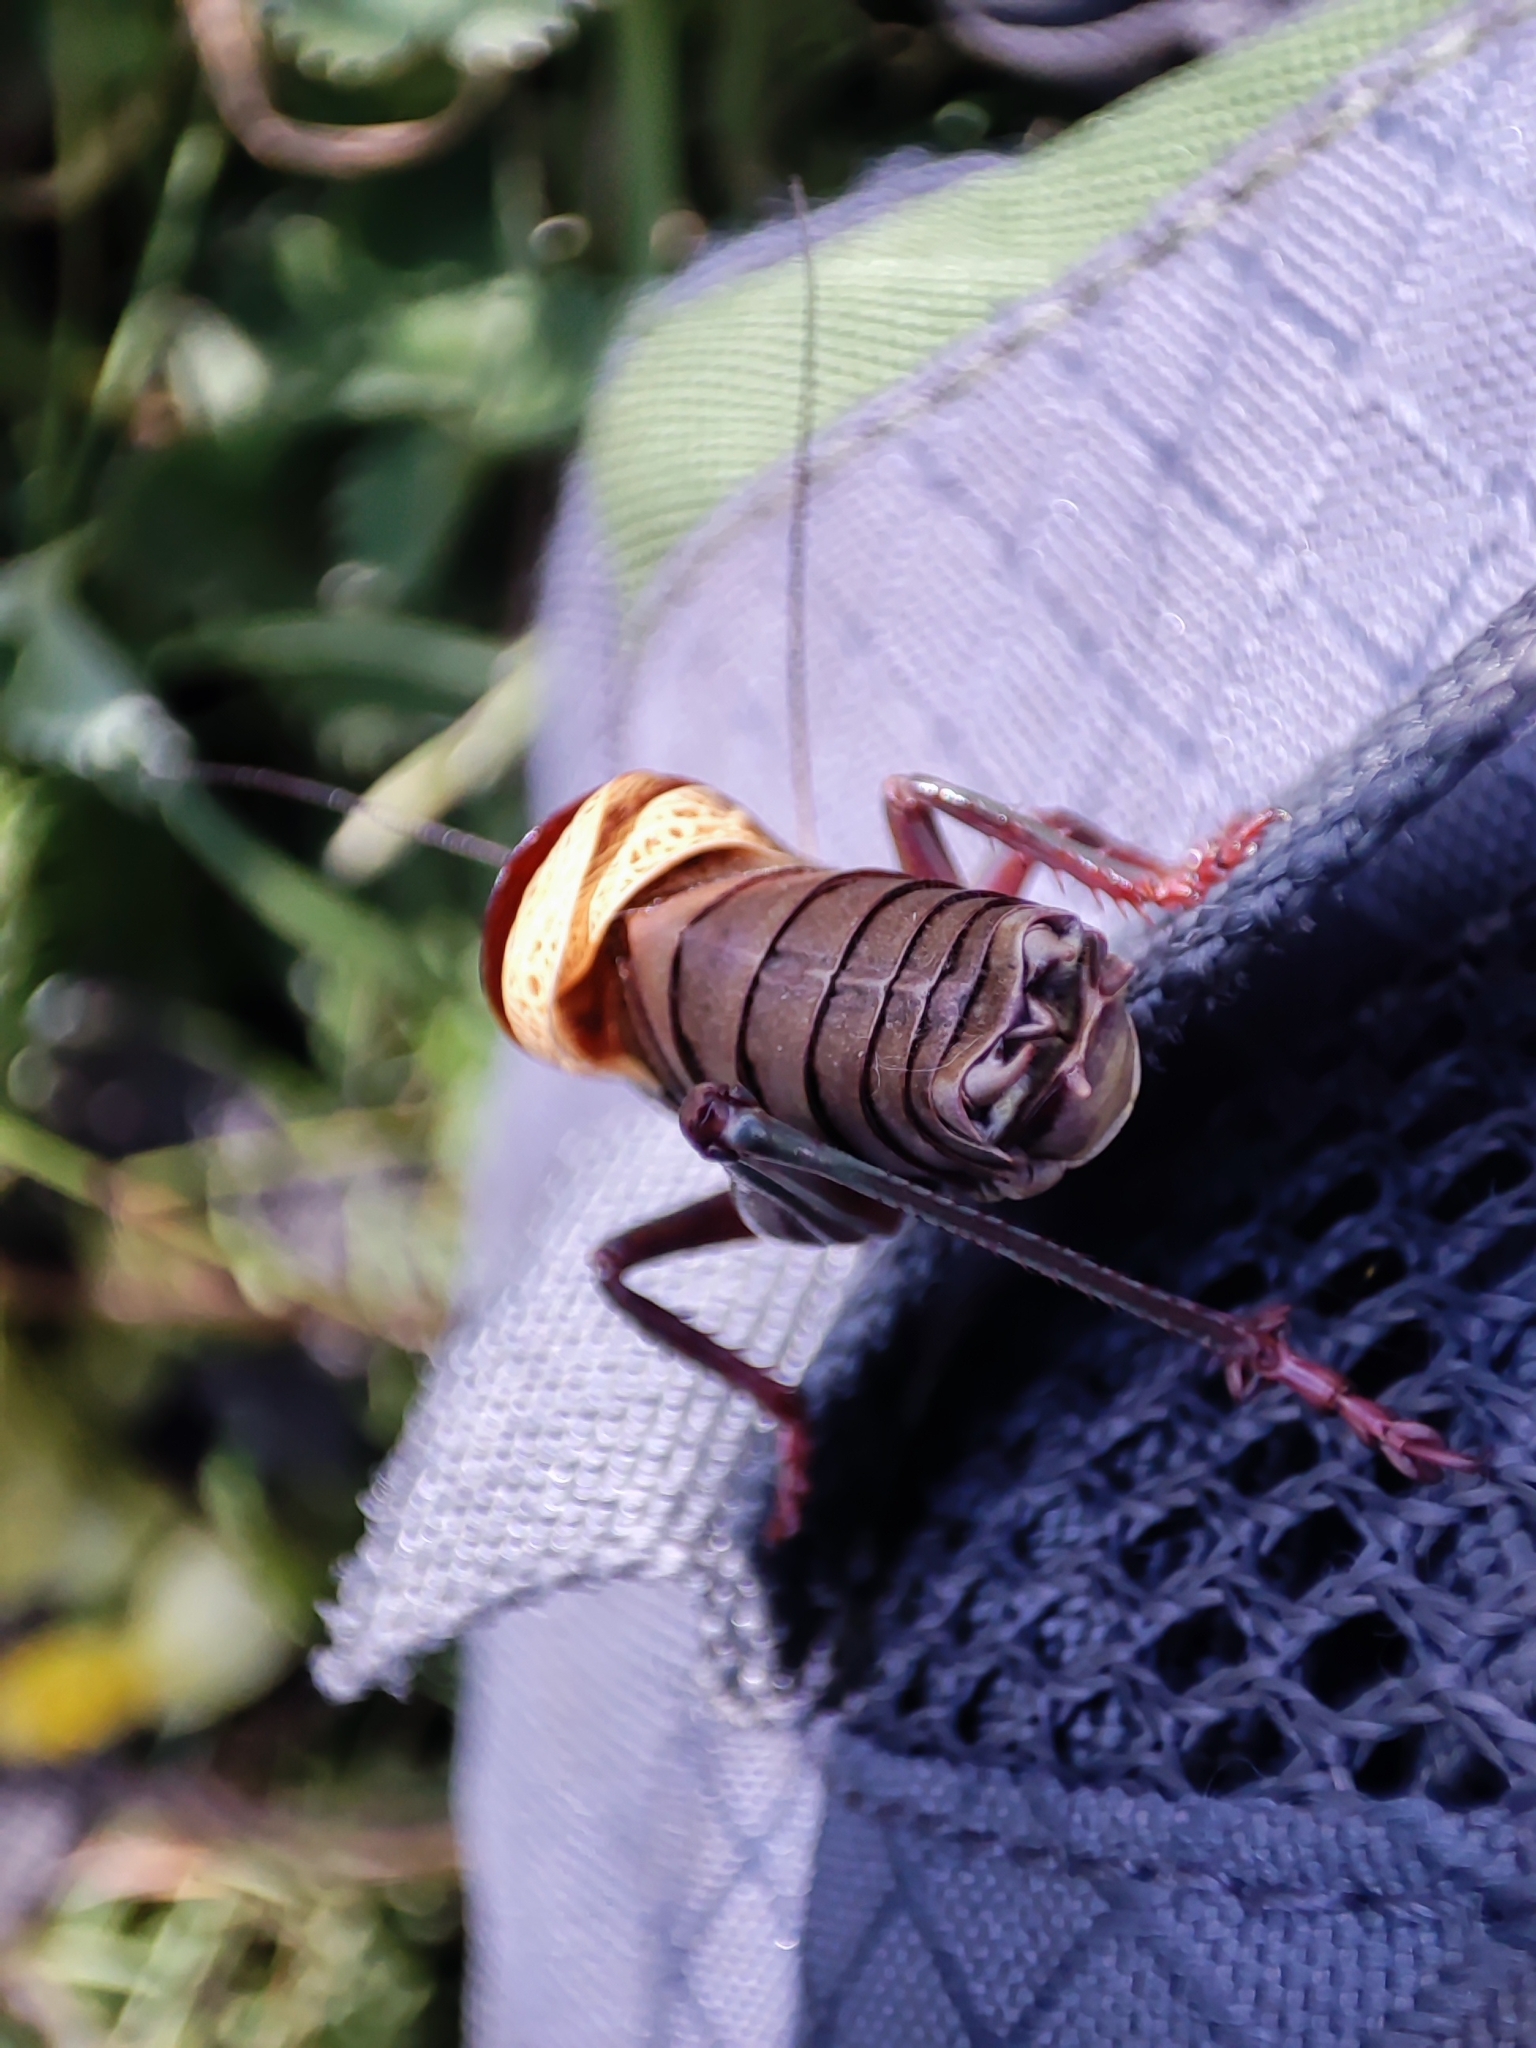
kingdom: Animalia
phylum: Arthropoda
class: Insecta
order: Orthoptera
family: Tettigoniidae
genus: Psorodonotus
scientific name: Psorodonotus venosus
